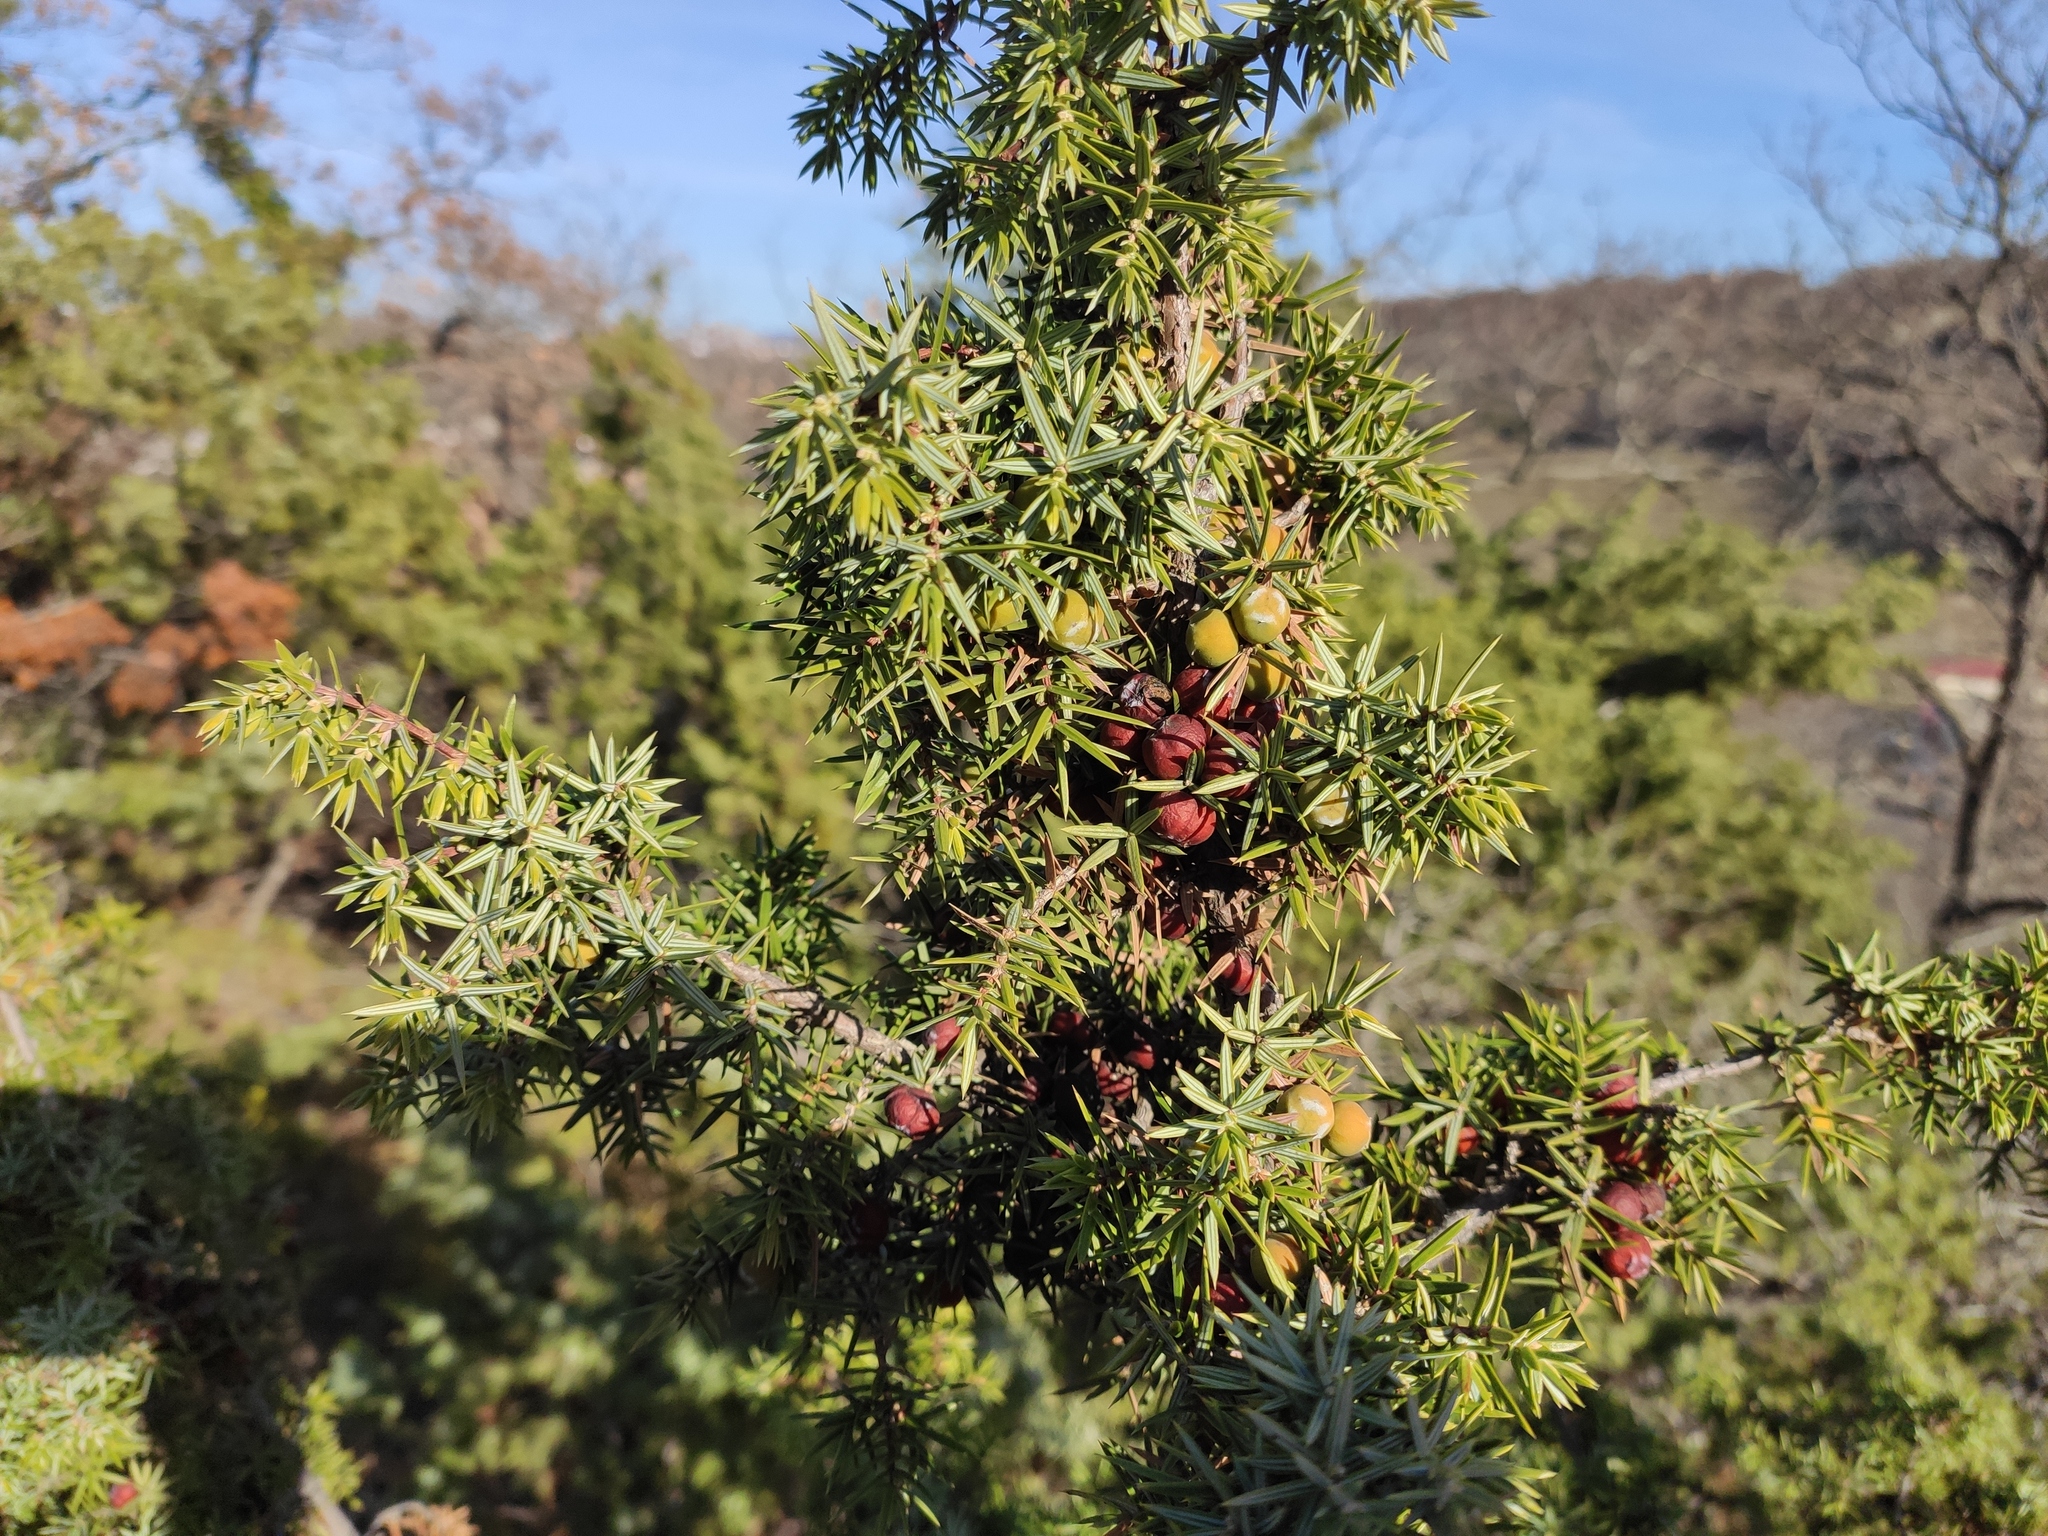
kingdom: Plantae
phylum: Tracheophyta
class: Pinopsida
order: Pinales
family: Cupressaceae
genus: Juniperus
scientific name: Juniperus oxycedrus
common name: Prickly juniper
